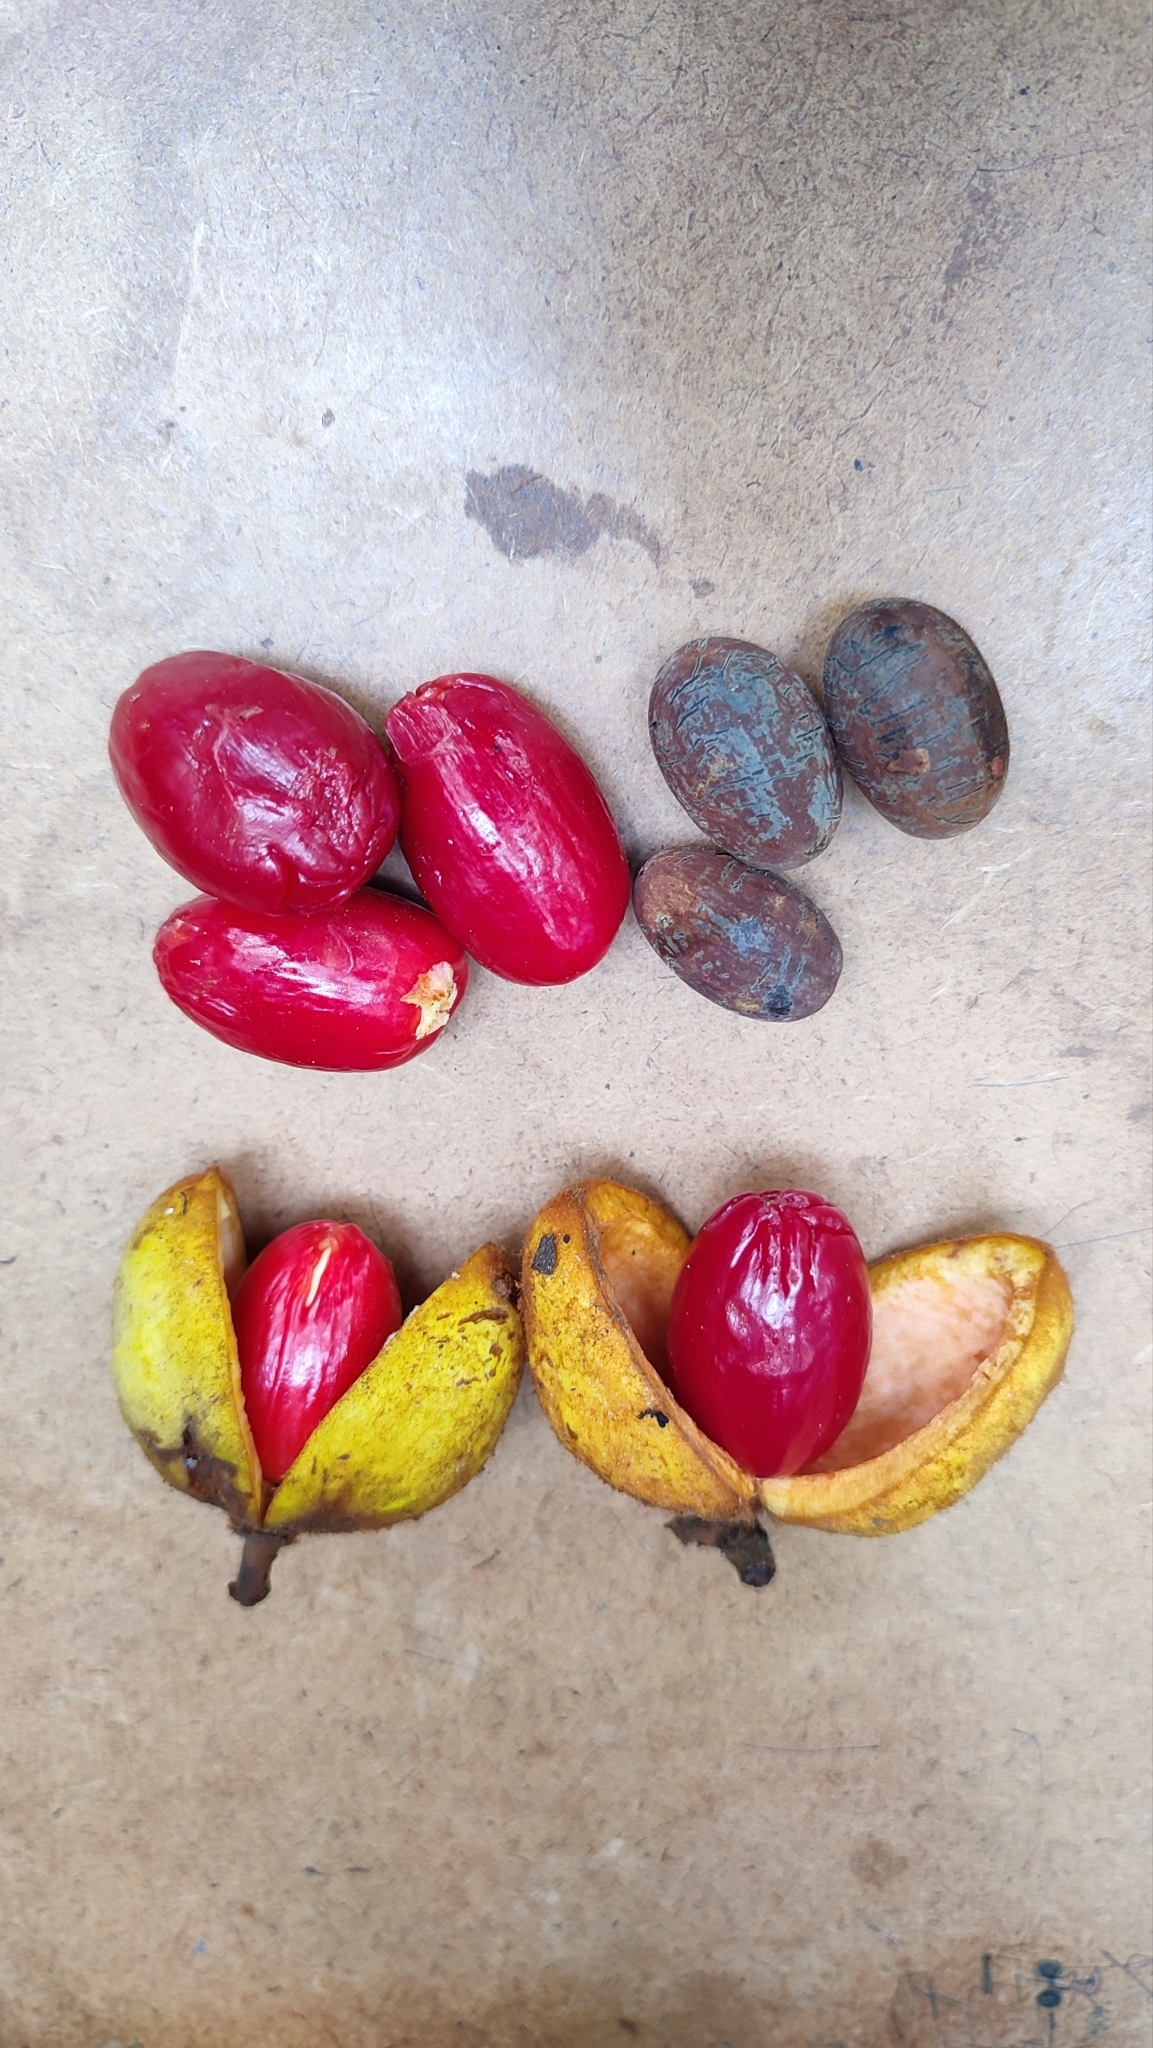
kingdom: Plantae
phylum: Tracheophyta
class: Magnoliopsida
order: Magnoliales
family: Myristicaceae
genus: Knema
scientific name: Knema attenuata
